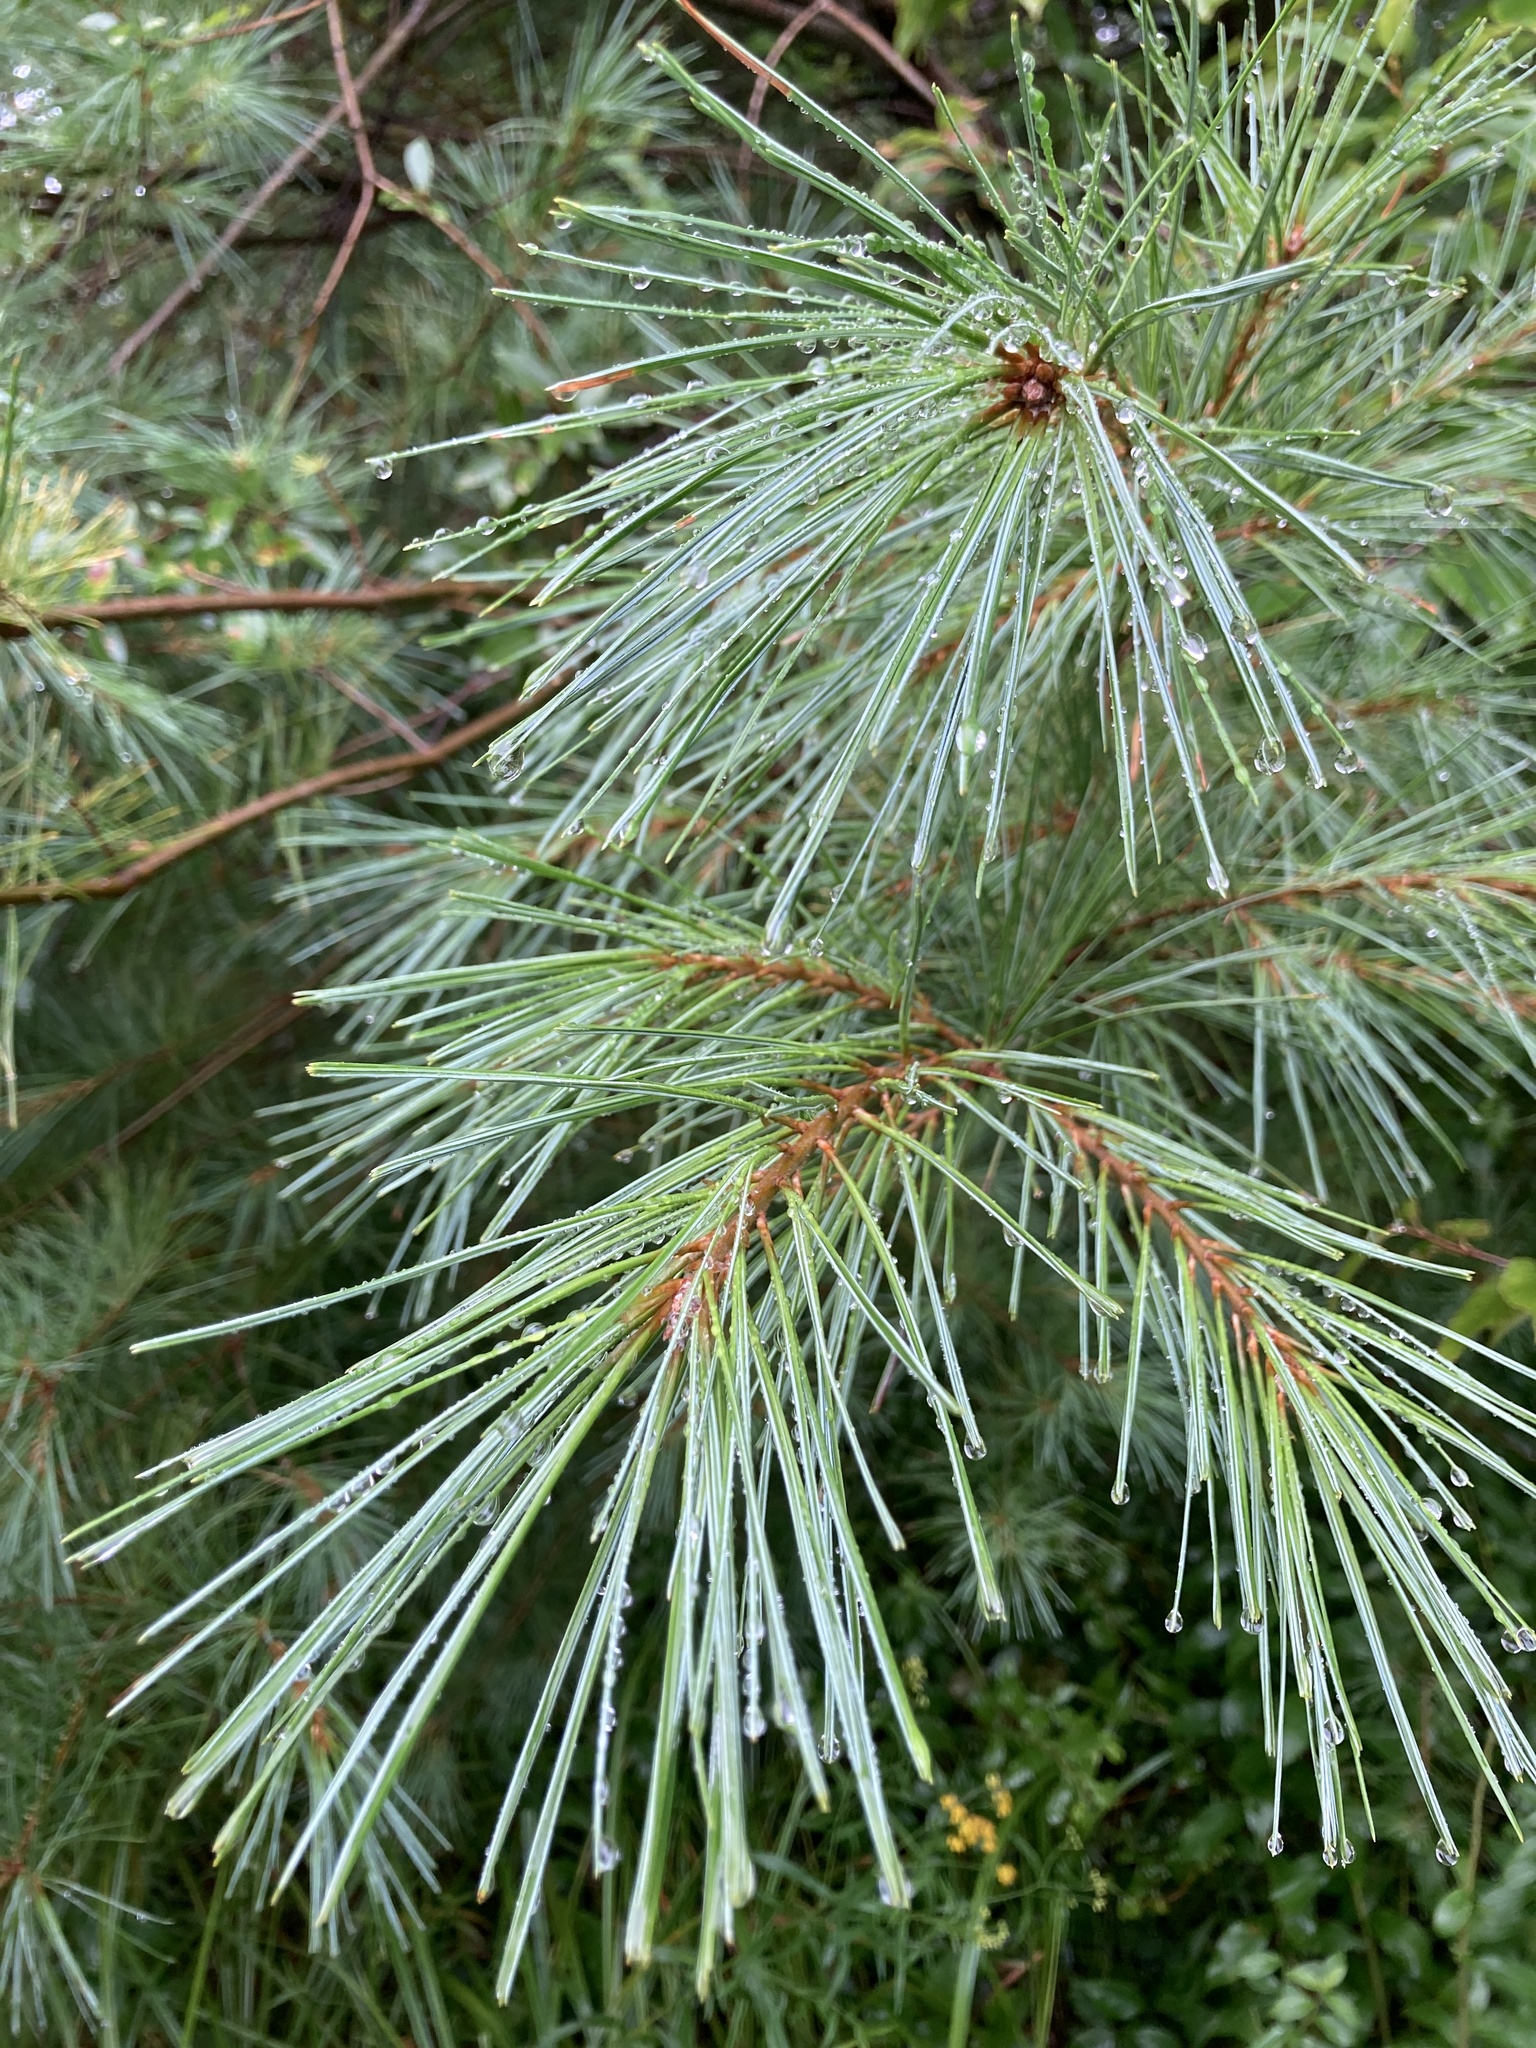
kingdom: Plantae
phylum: Tracheophyta
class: Pinopsida
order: Pinales
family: Pinaceae
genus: Pinus
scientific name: Pinus strobus
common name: Weymouth pine
